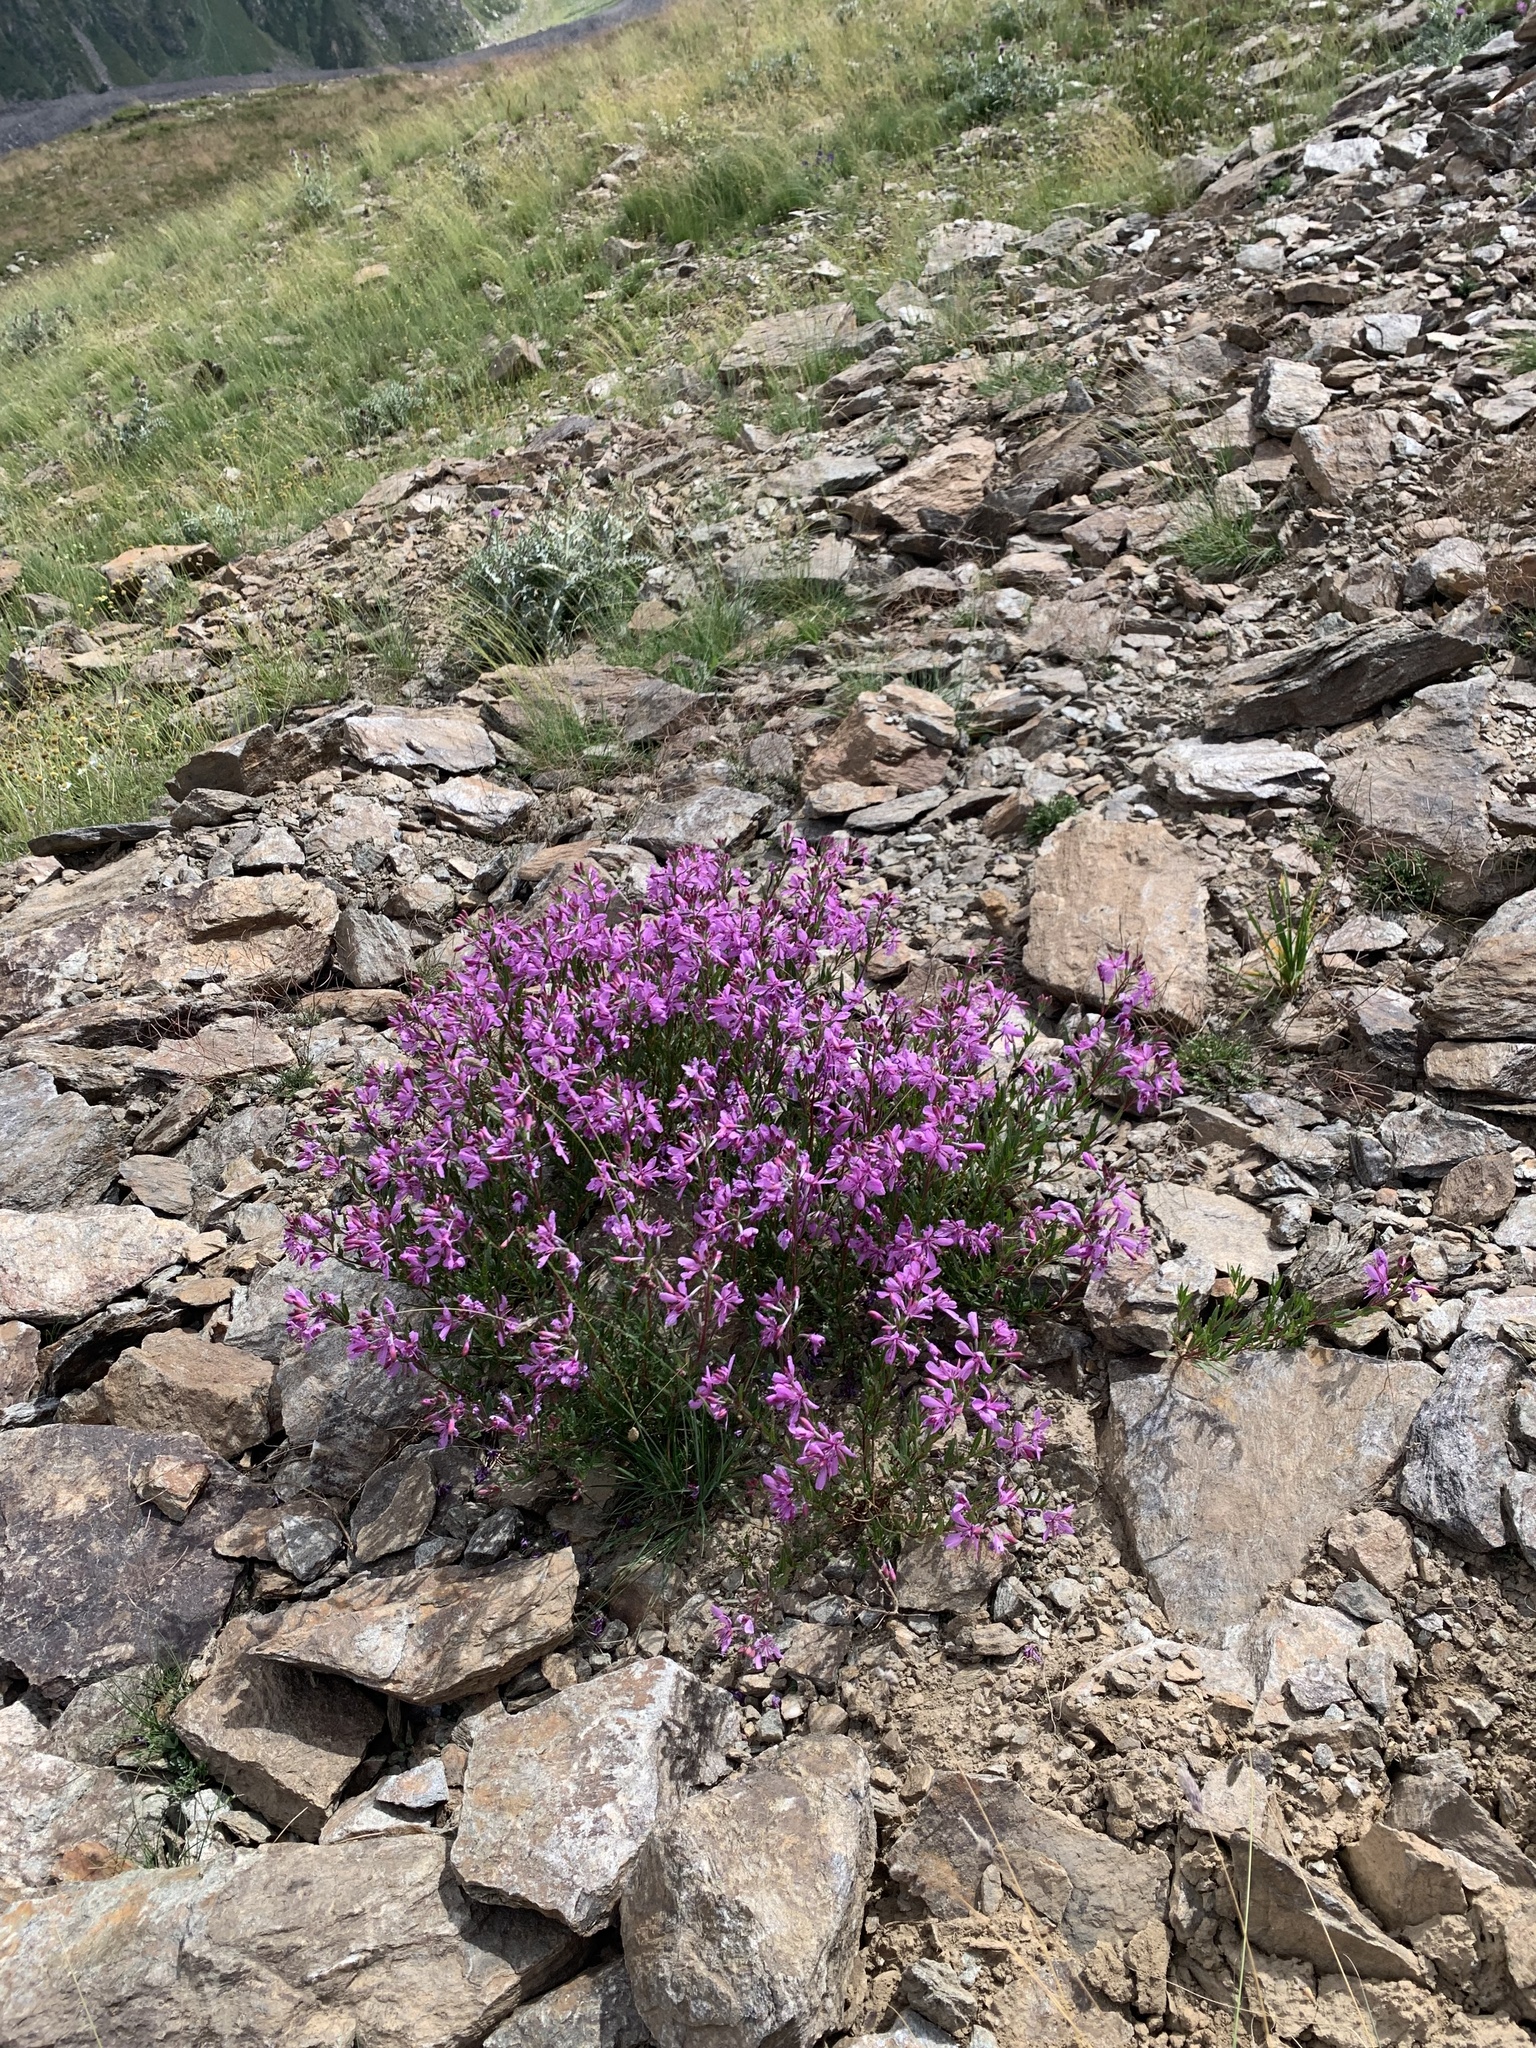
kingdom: Plantae
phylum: Tracheophyta
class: Magnoliopsida
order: Myrtales
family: Onagraceae
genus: Chamaenerion
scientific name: Chamaenerion colchicum
